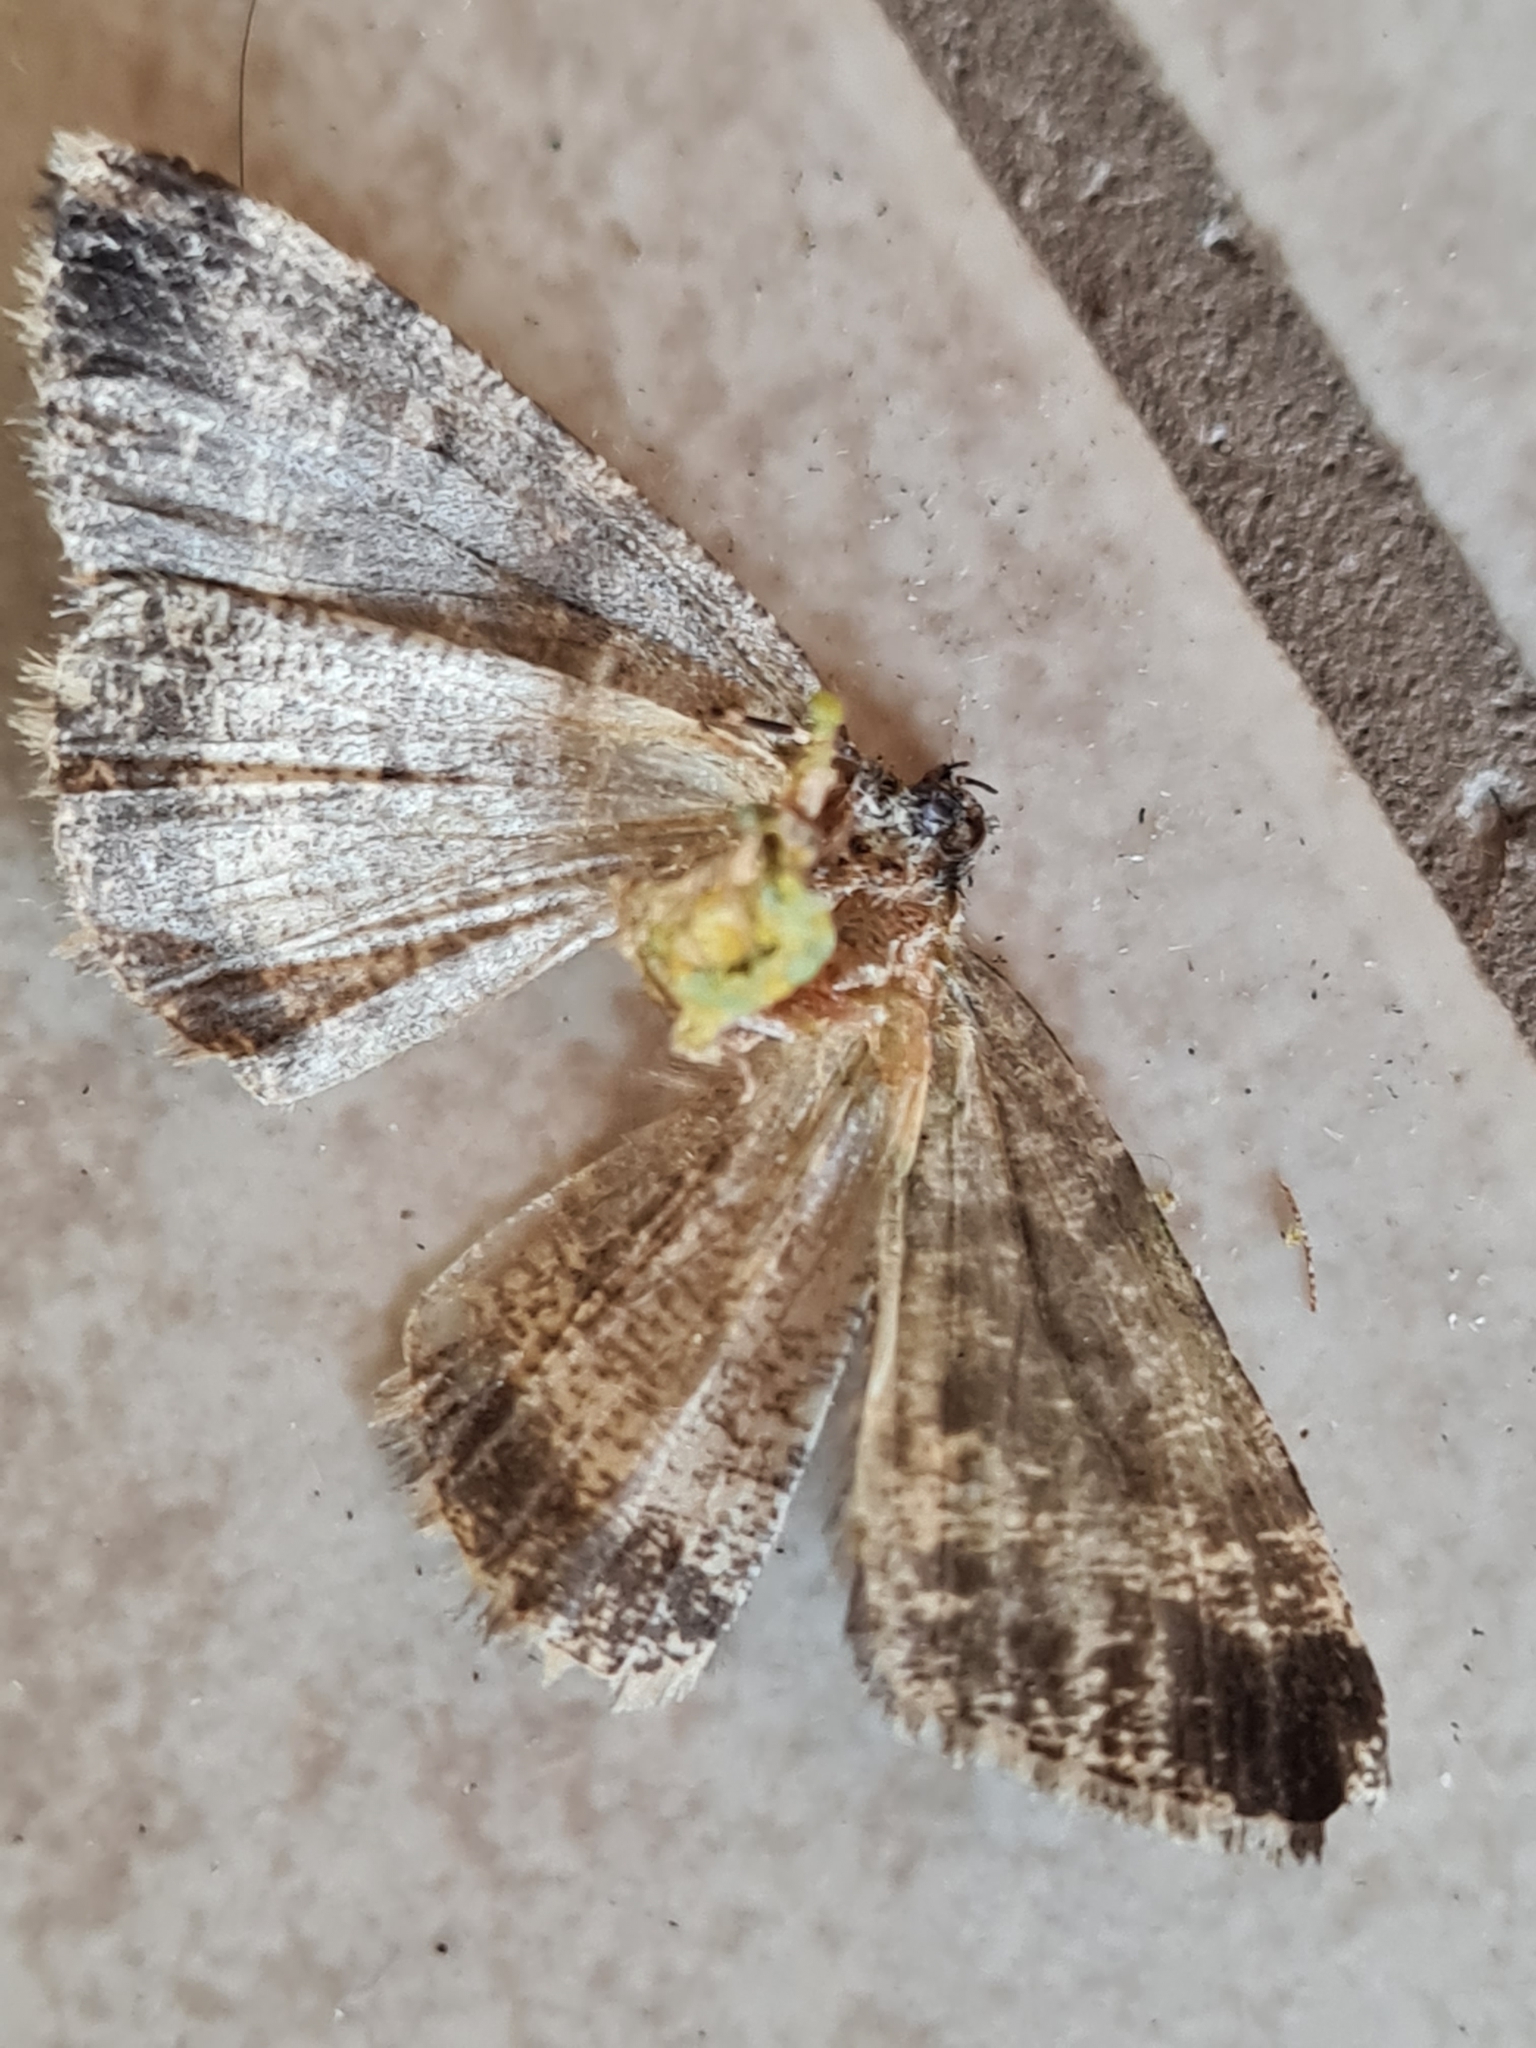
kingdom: Animalia
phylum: Arthropoda
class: Insecta
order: Lepidoptera
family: Geometridae
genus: Pseudocoremia
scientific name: Pseudocoremia monacha
